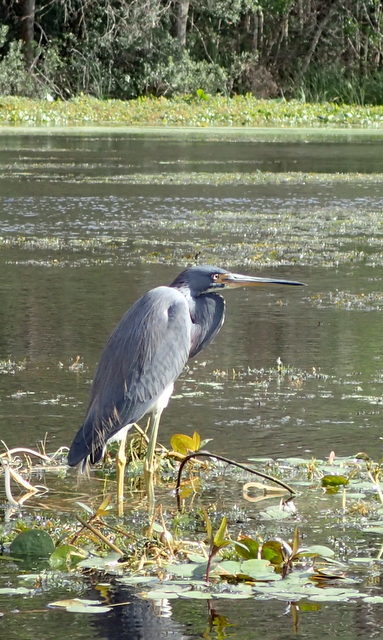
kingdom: Animalia
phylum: Chordata
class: Aves
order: Pelecaniformes
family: Ardeidae
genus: Egretta
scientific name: Egretta tricolor
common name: Tricolored heron
